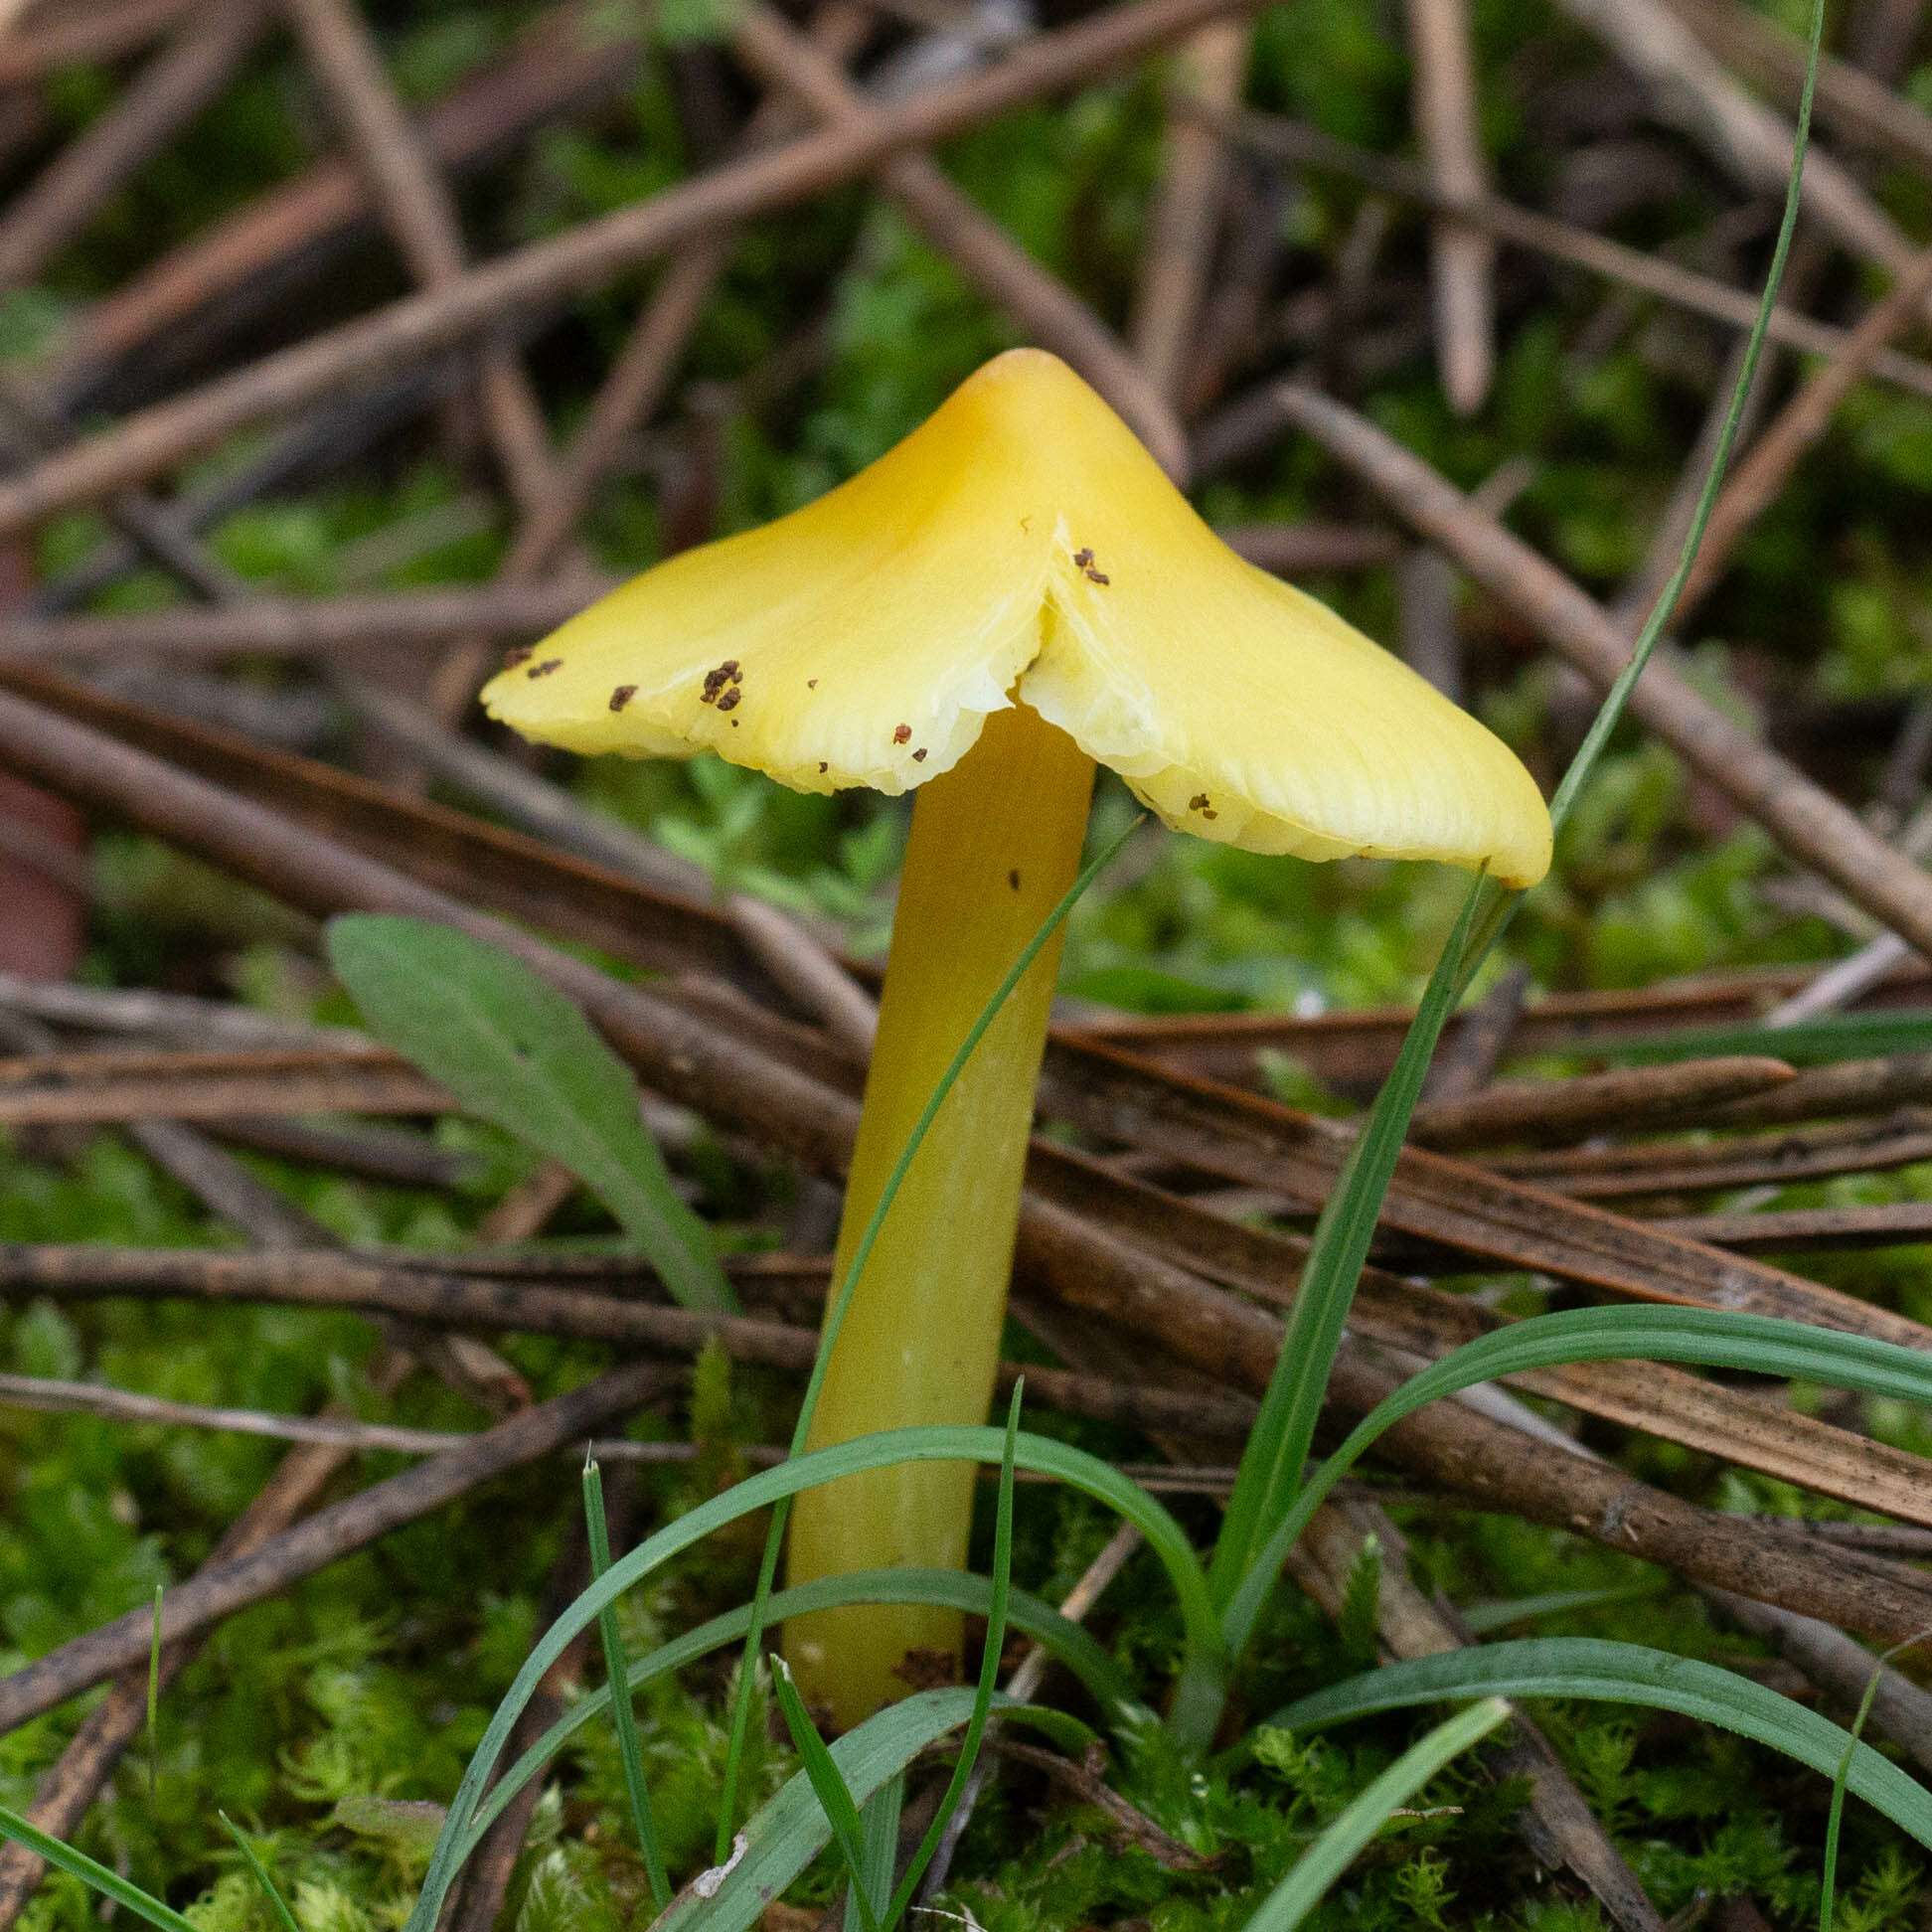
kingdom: Fungi
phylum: Basidiomycota
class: Agaricomycetes
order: Agaricales
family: Hygrophoraceae
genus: Hygrocybe
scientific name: Hygrocybe acutoconica
